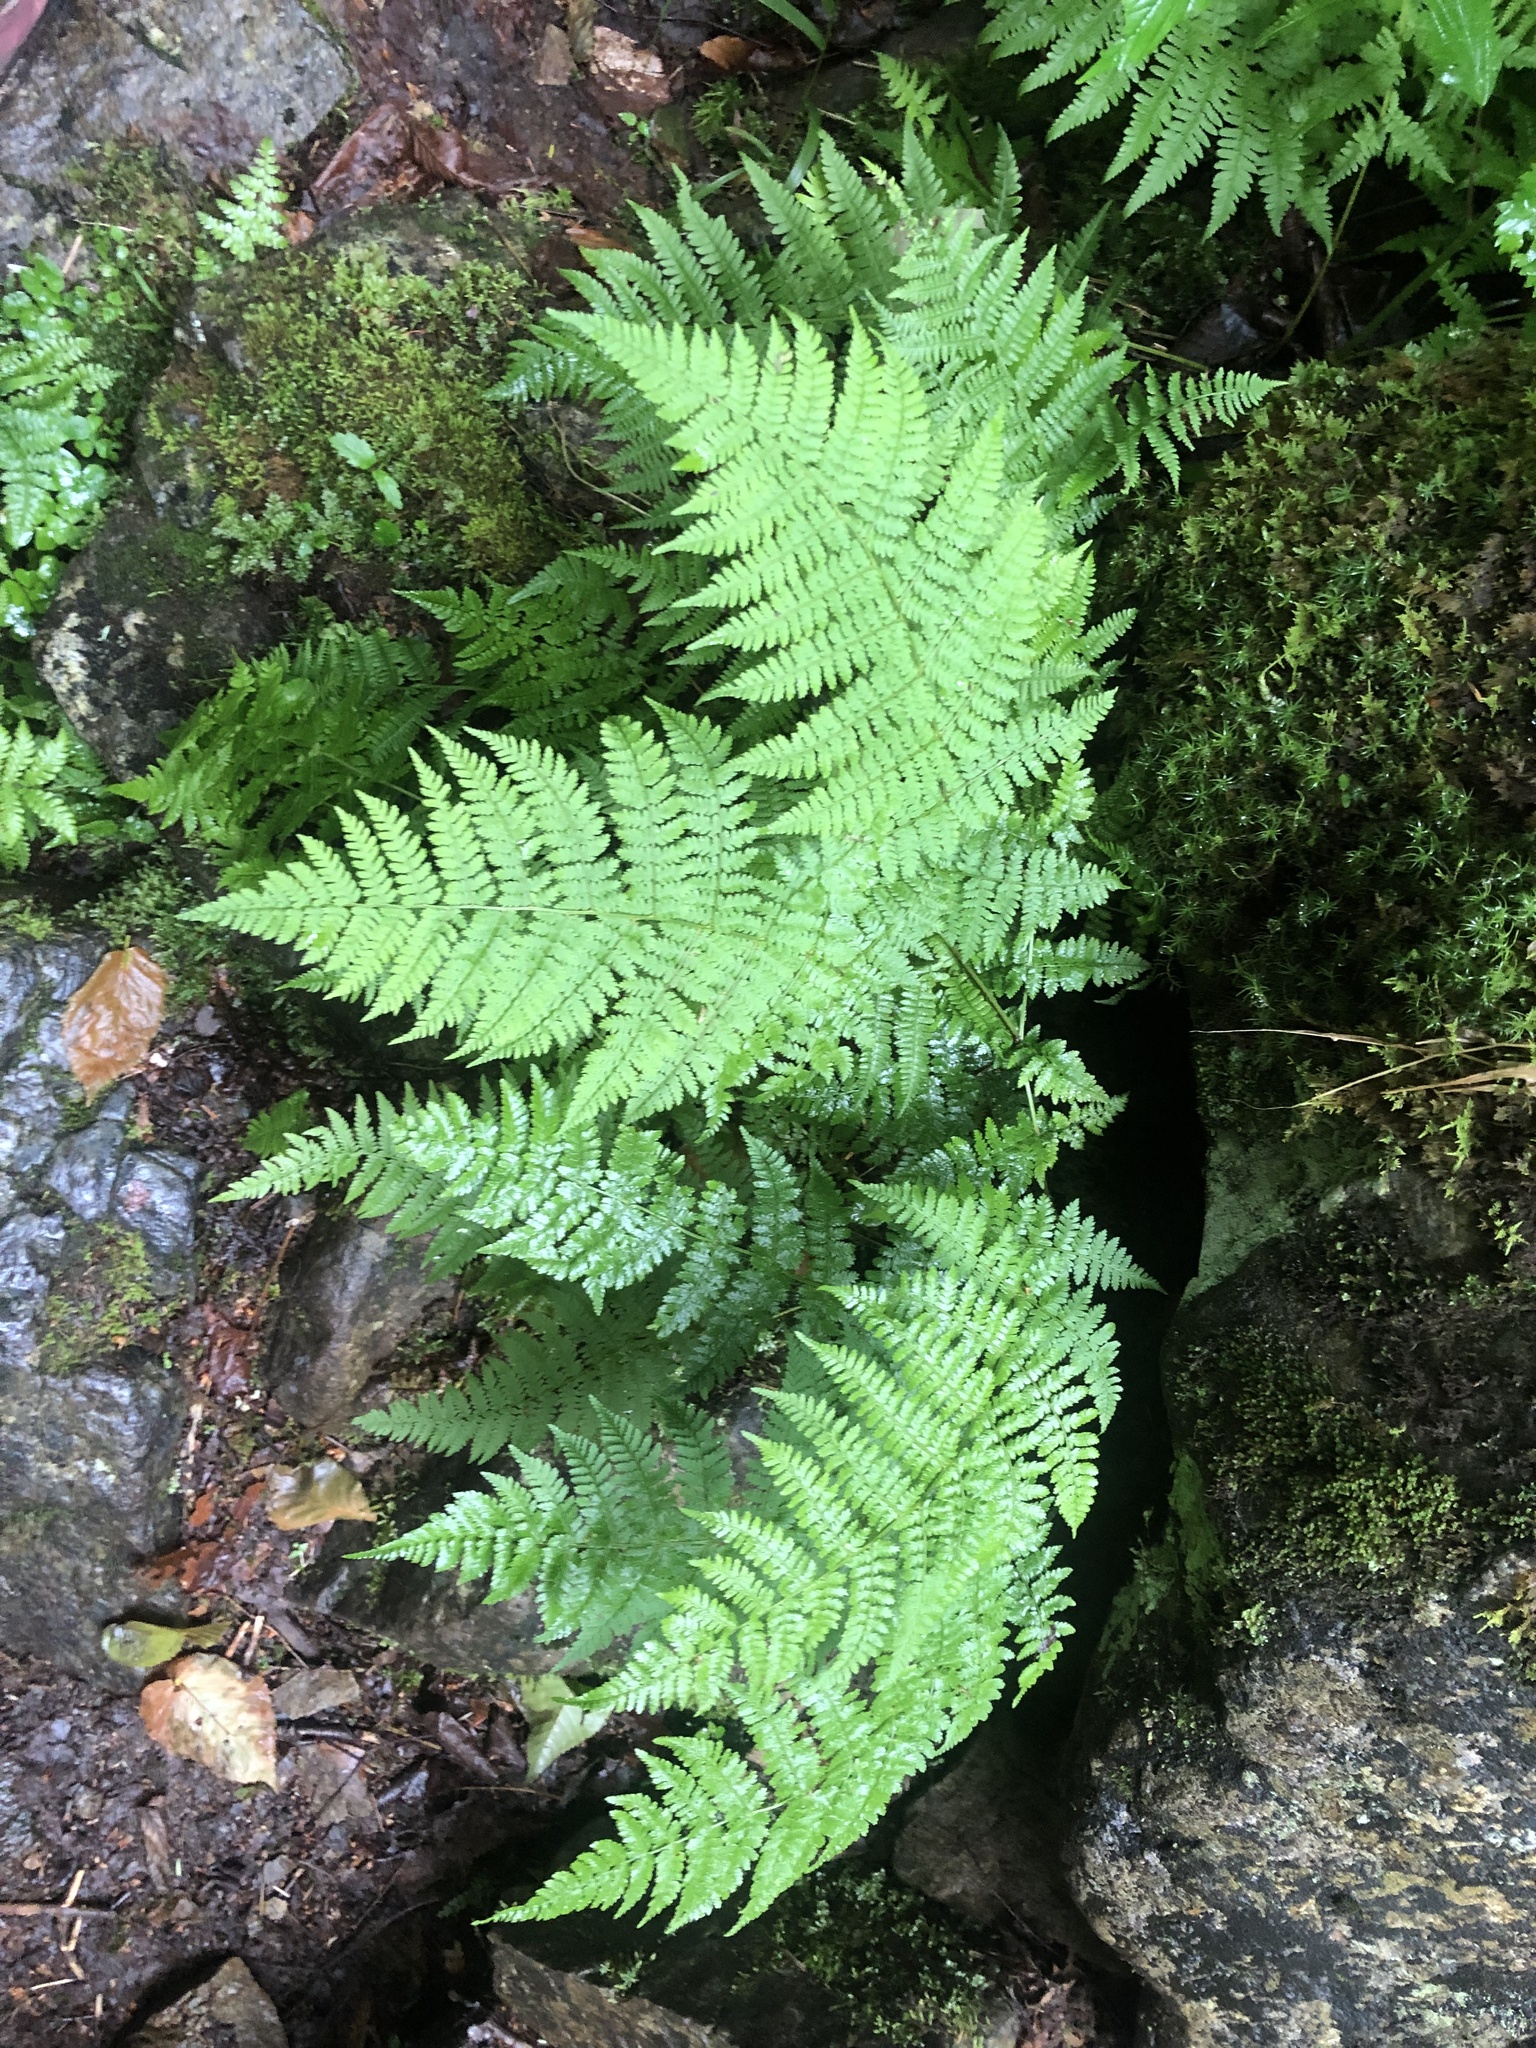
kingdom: Plantae
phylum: Tracheophyta
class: Polypodiopsida
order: Polypodiales
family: Dryopteridaceae
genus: Dryopteris
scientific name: Dryopteris intermedia
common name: Evergreen wood fern
